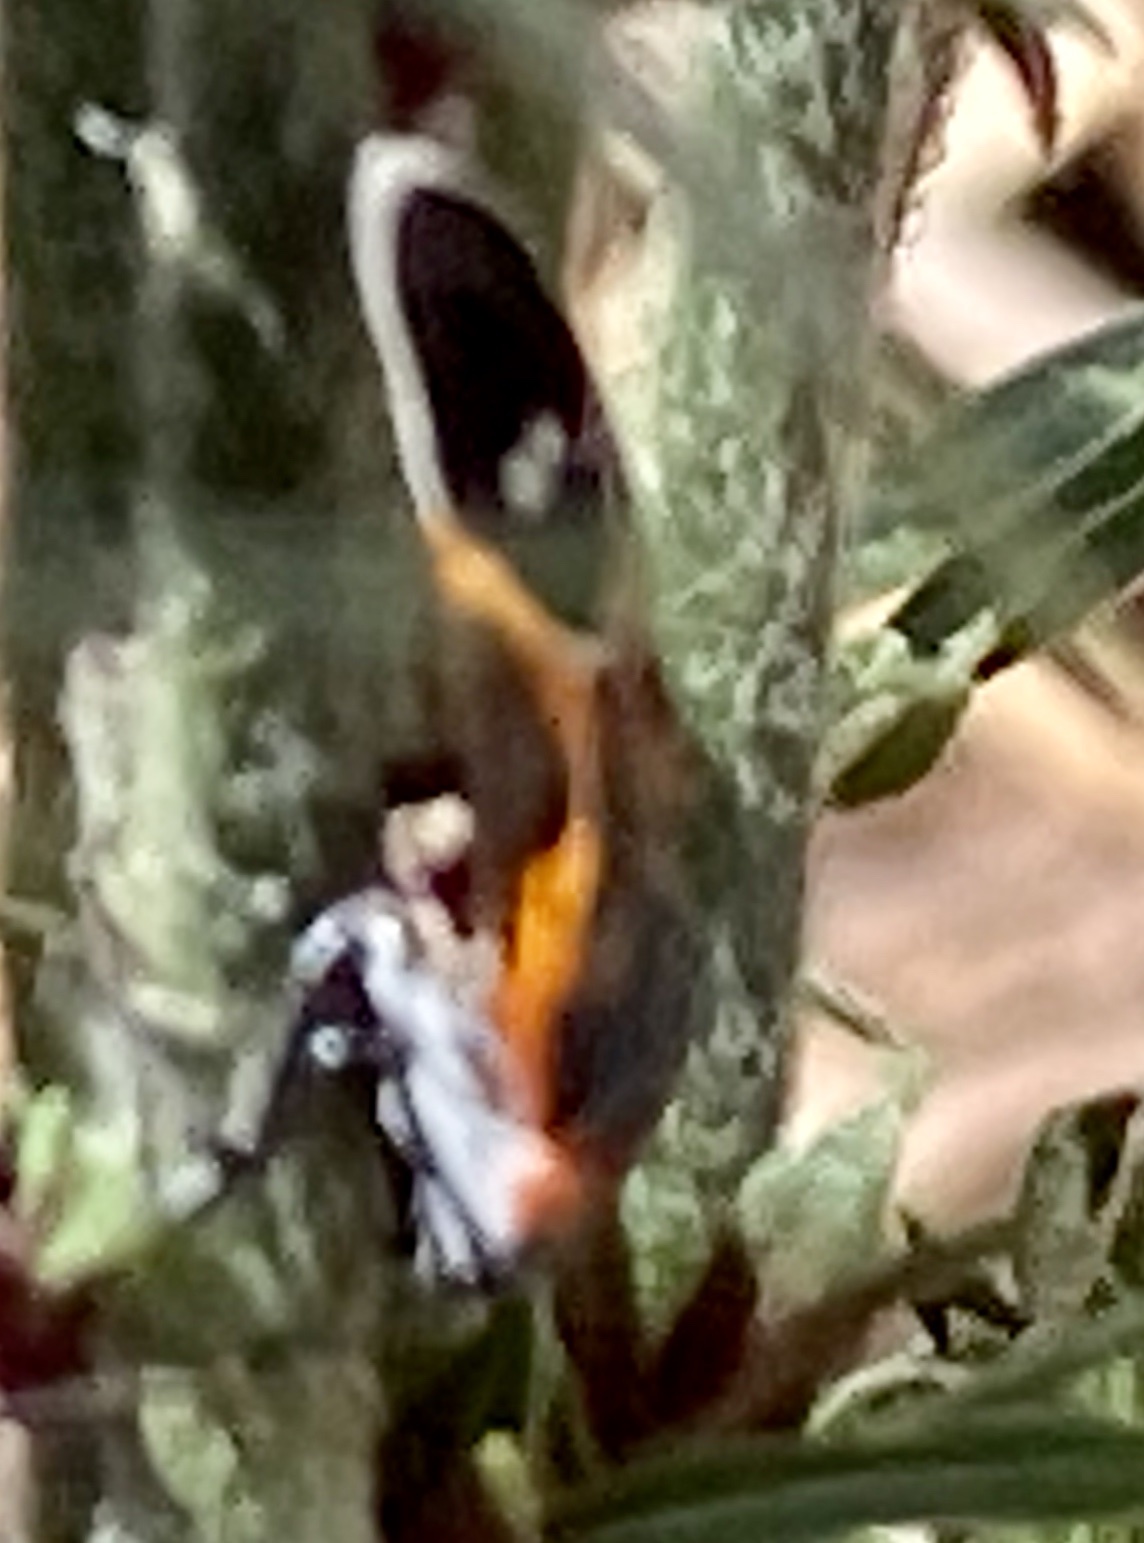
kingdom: Animalia
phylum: Arthropoda
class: Insecta
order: Hemiptera
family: Lygaeidae
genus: Lygaeus
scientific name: Lygaeus kalmii
